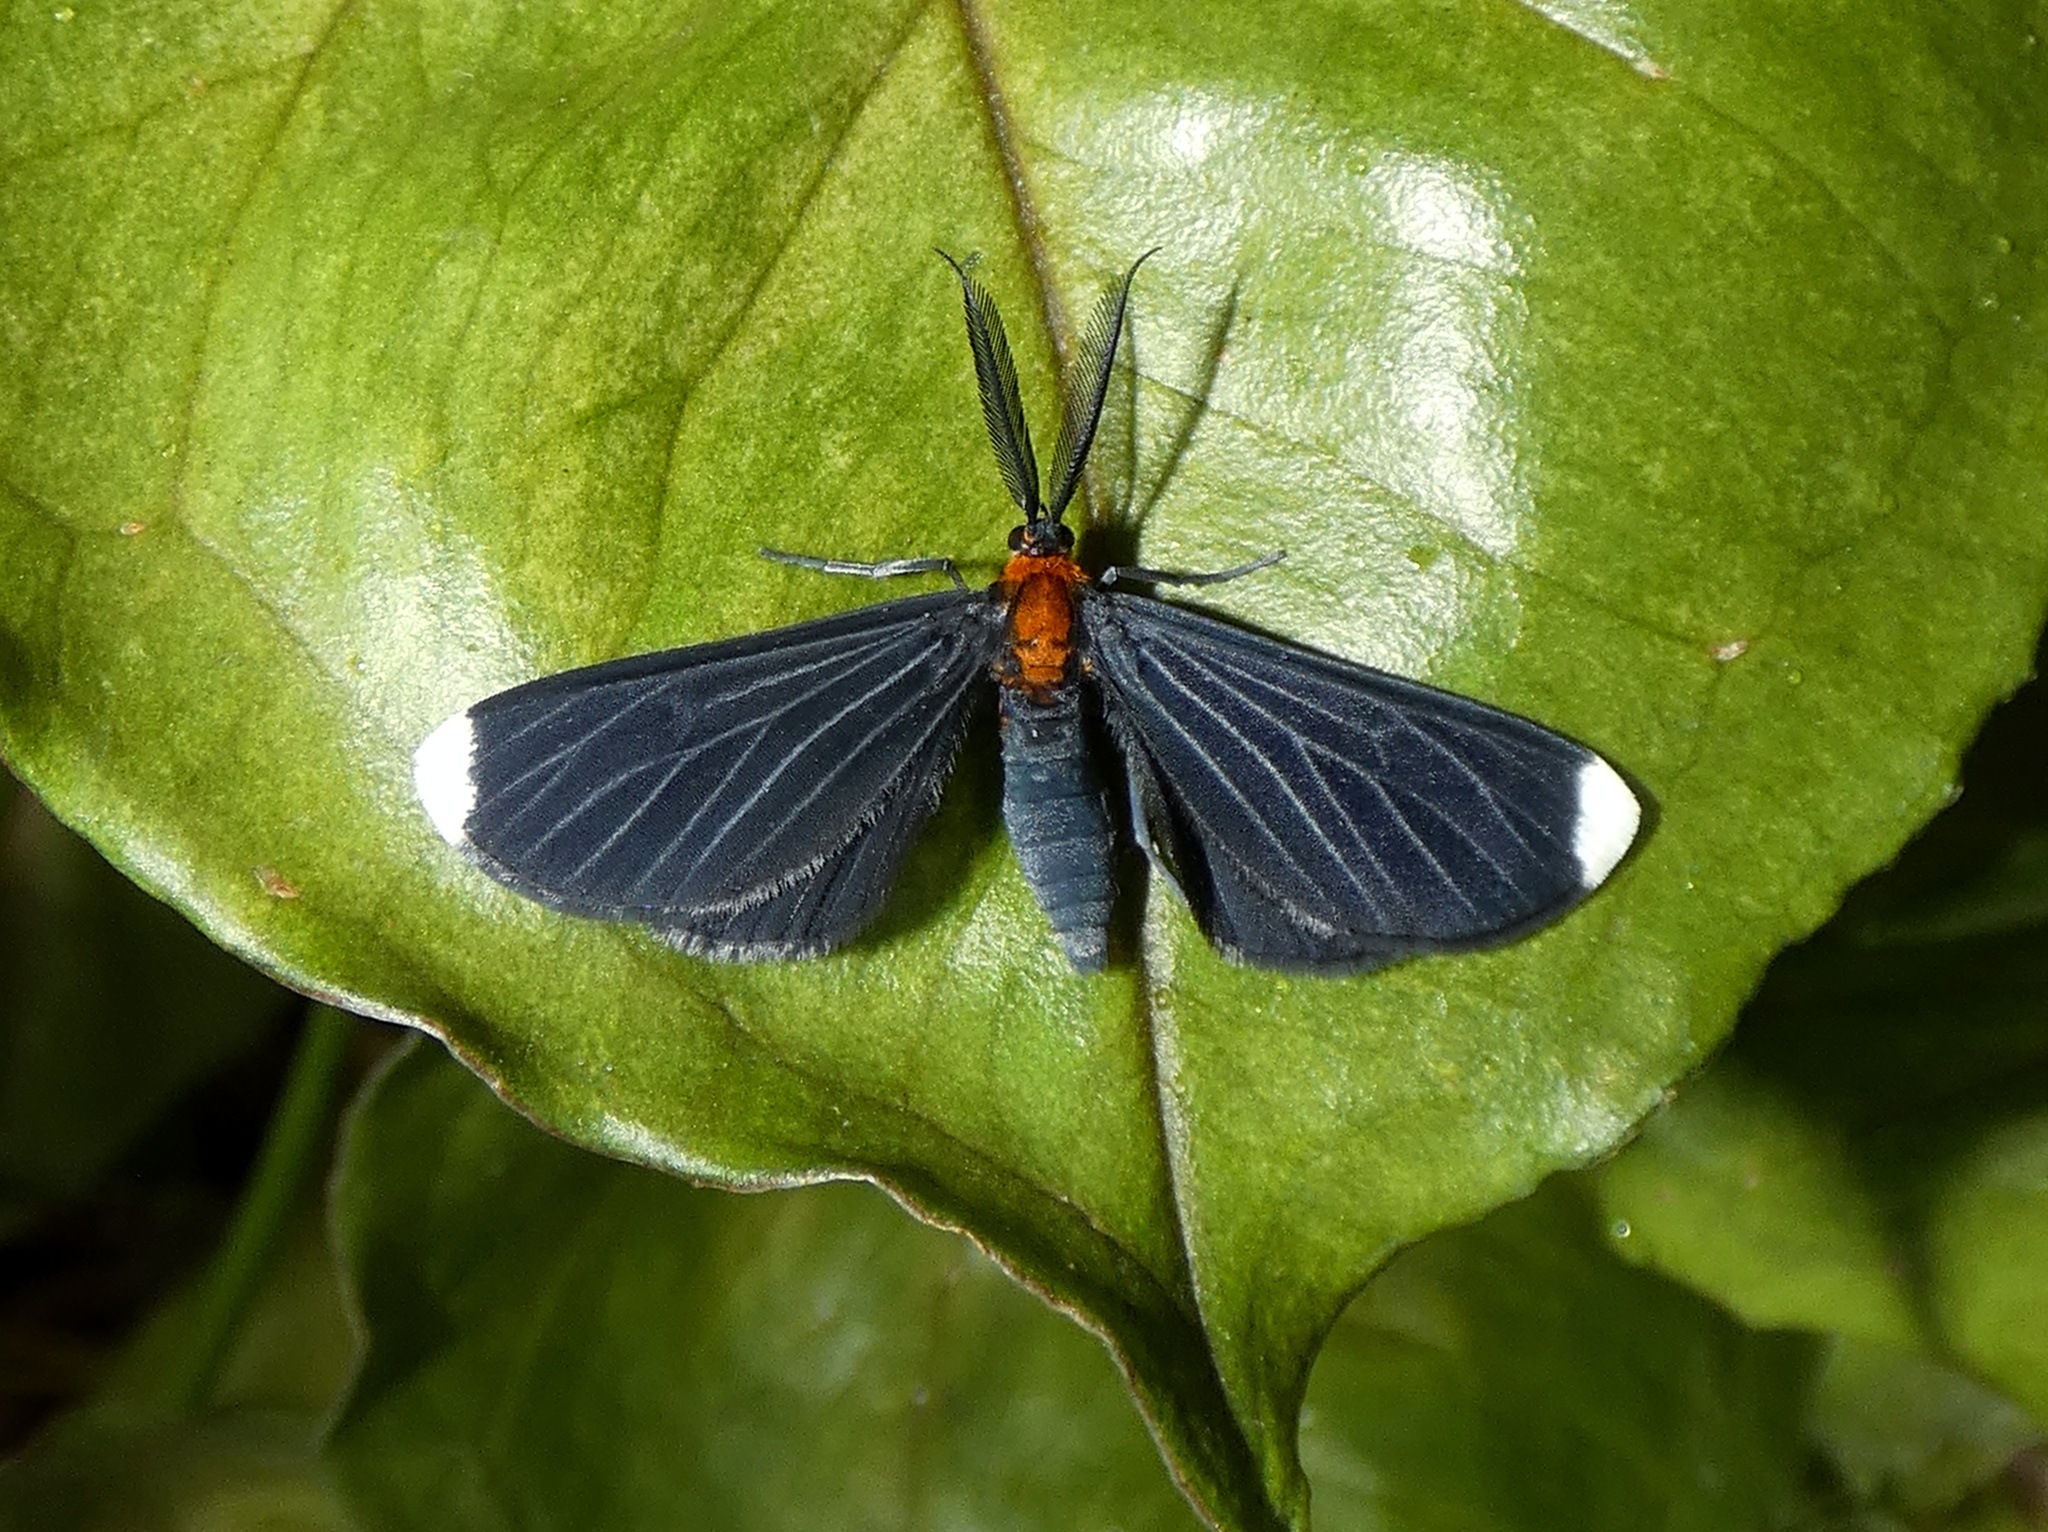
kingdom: Animalia
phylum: Arthropoda
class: Insecta
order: Lepidoptera
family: Geometridae
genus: Melanchroia
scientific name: Melanchroia chephise
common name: White-tipped black
